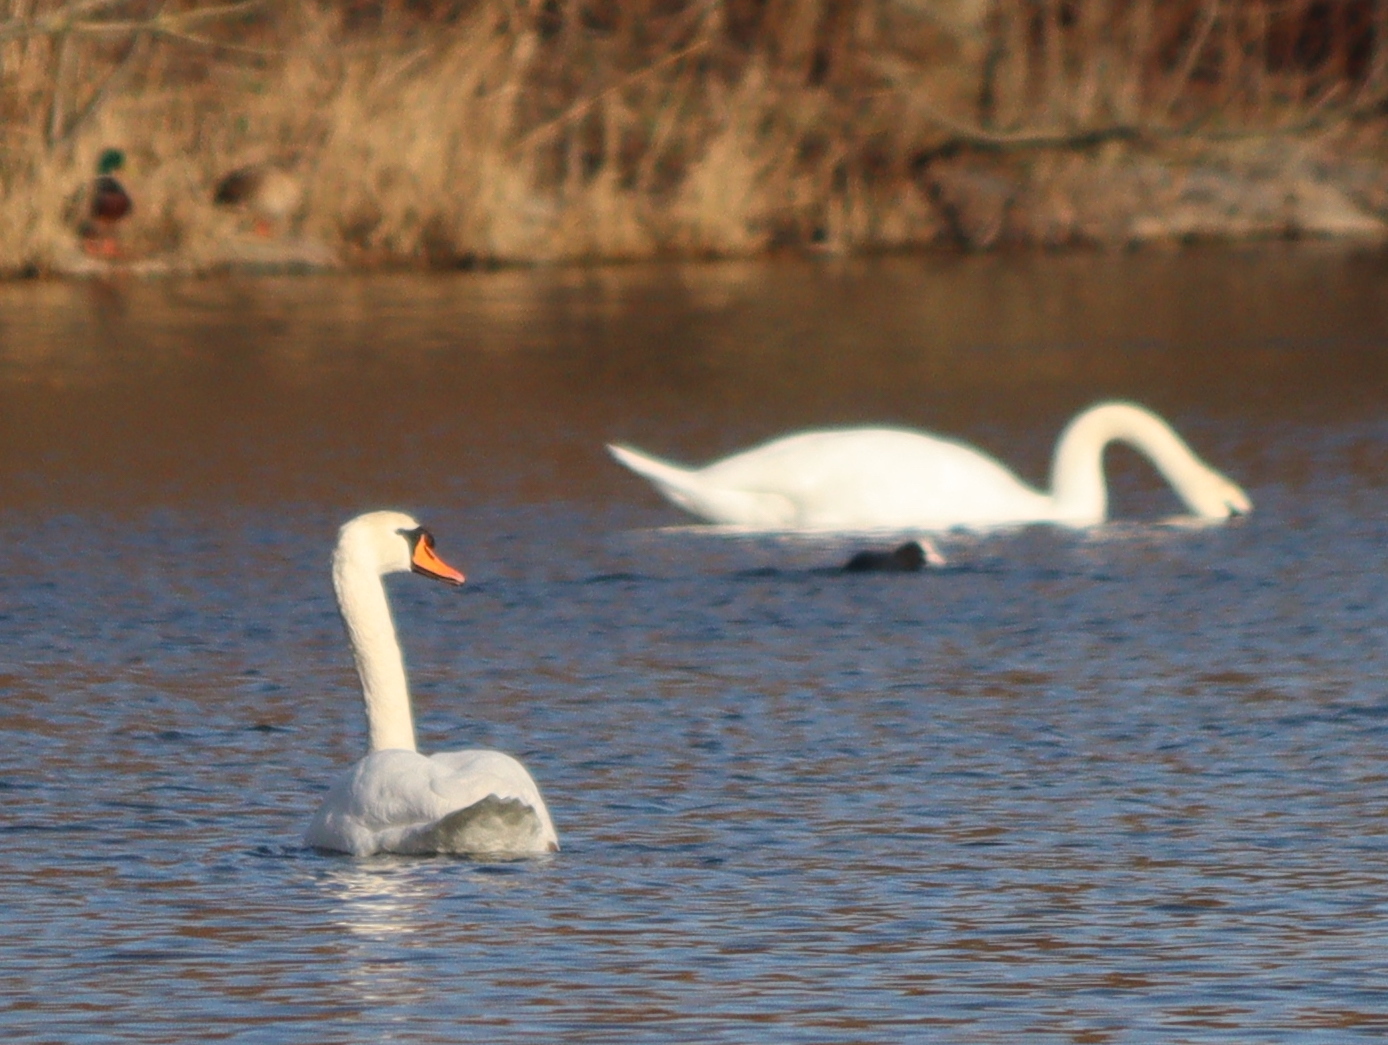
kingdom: Animalia
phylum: Chordata
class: Aves
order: Anseriformes
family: Anatidae
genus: Cygnus
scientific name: Cygnus olor
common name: Mute swan
